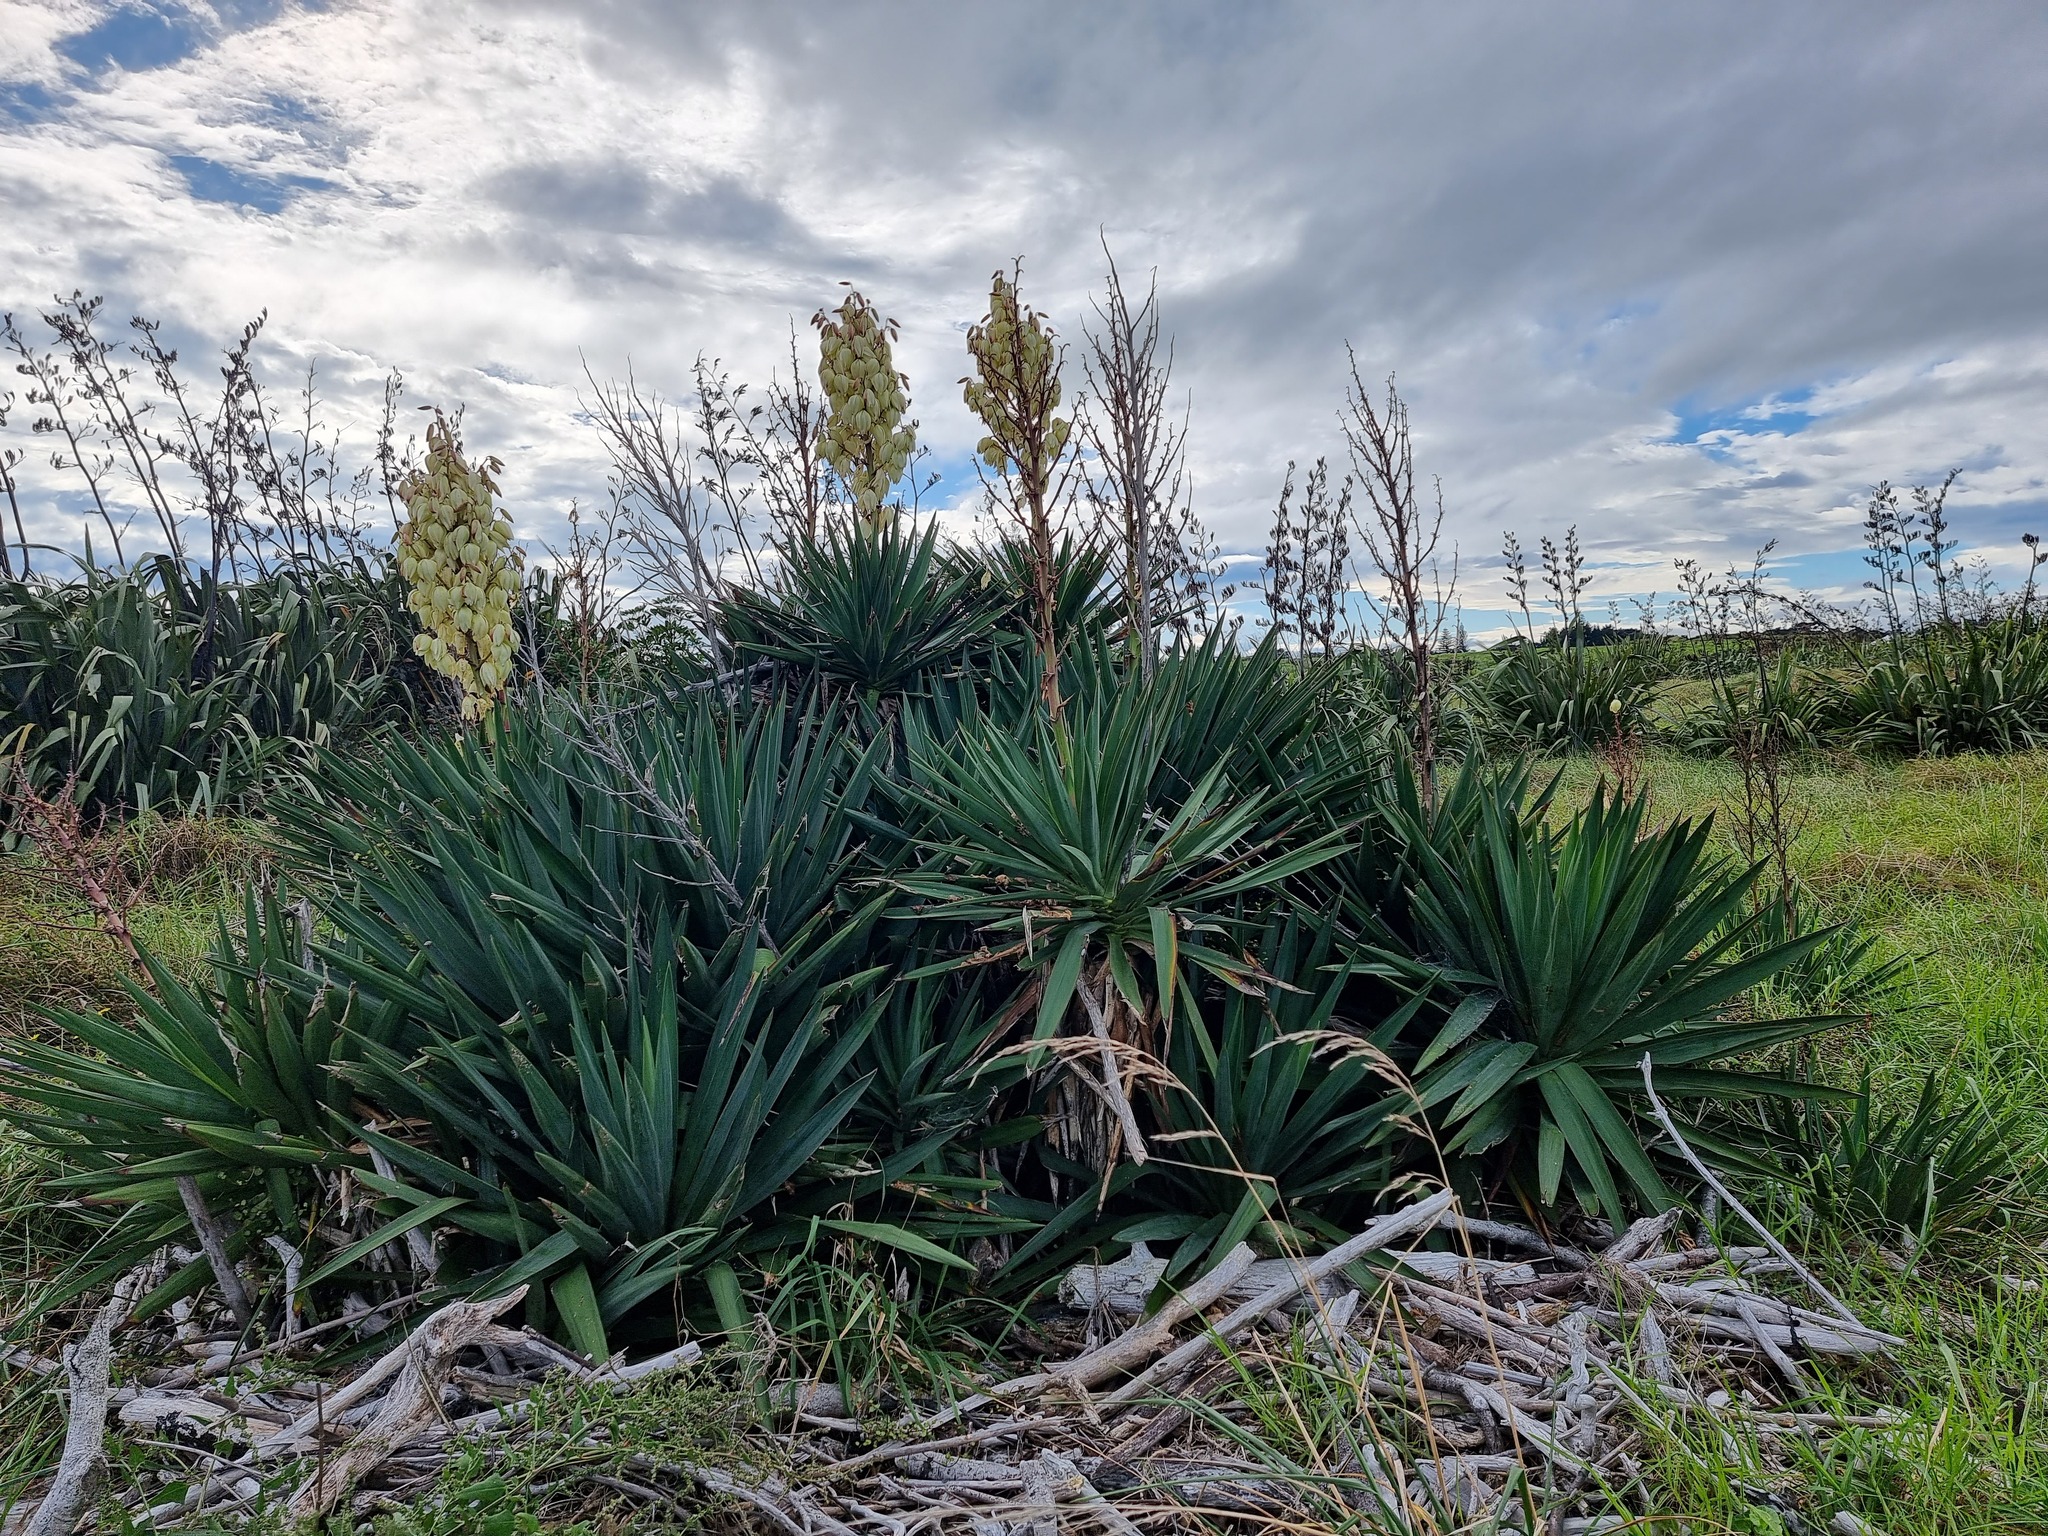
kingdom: Plantae
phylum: Tracheophyta
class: Liliopsida
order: Asparagales
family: Asparagaceae
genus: Yucca
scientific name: Yucca gloriosa
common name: Spanish-dagger
